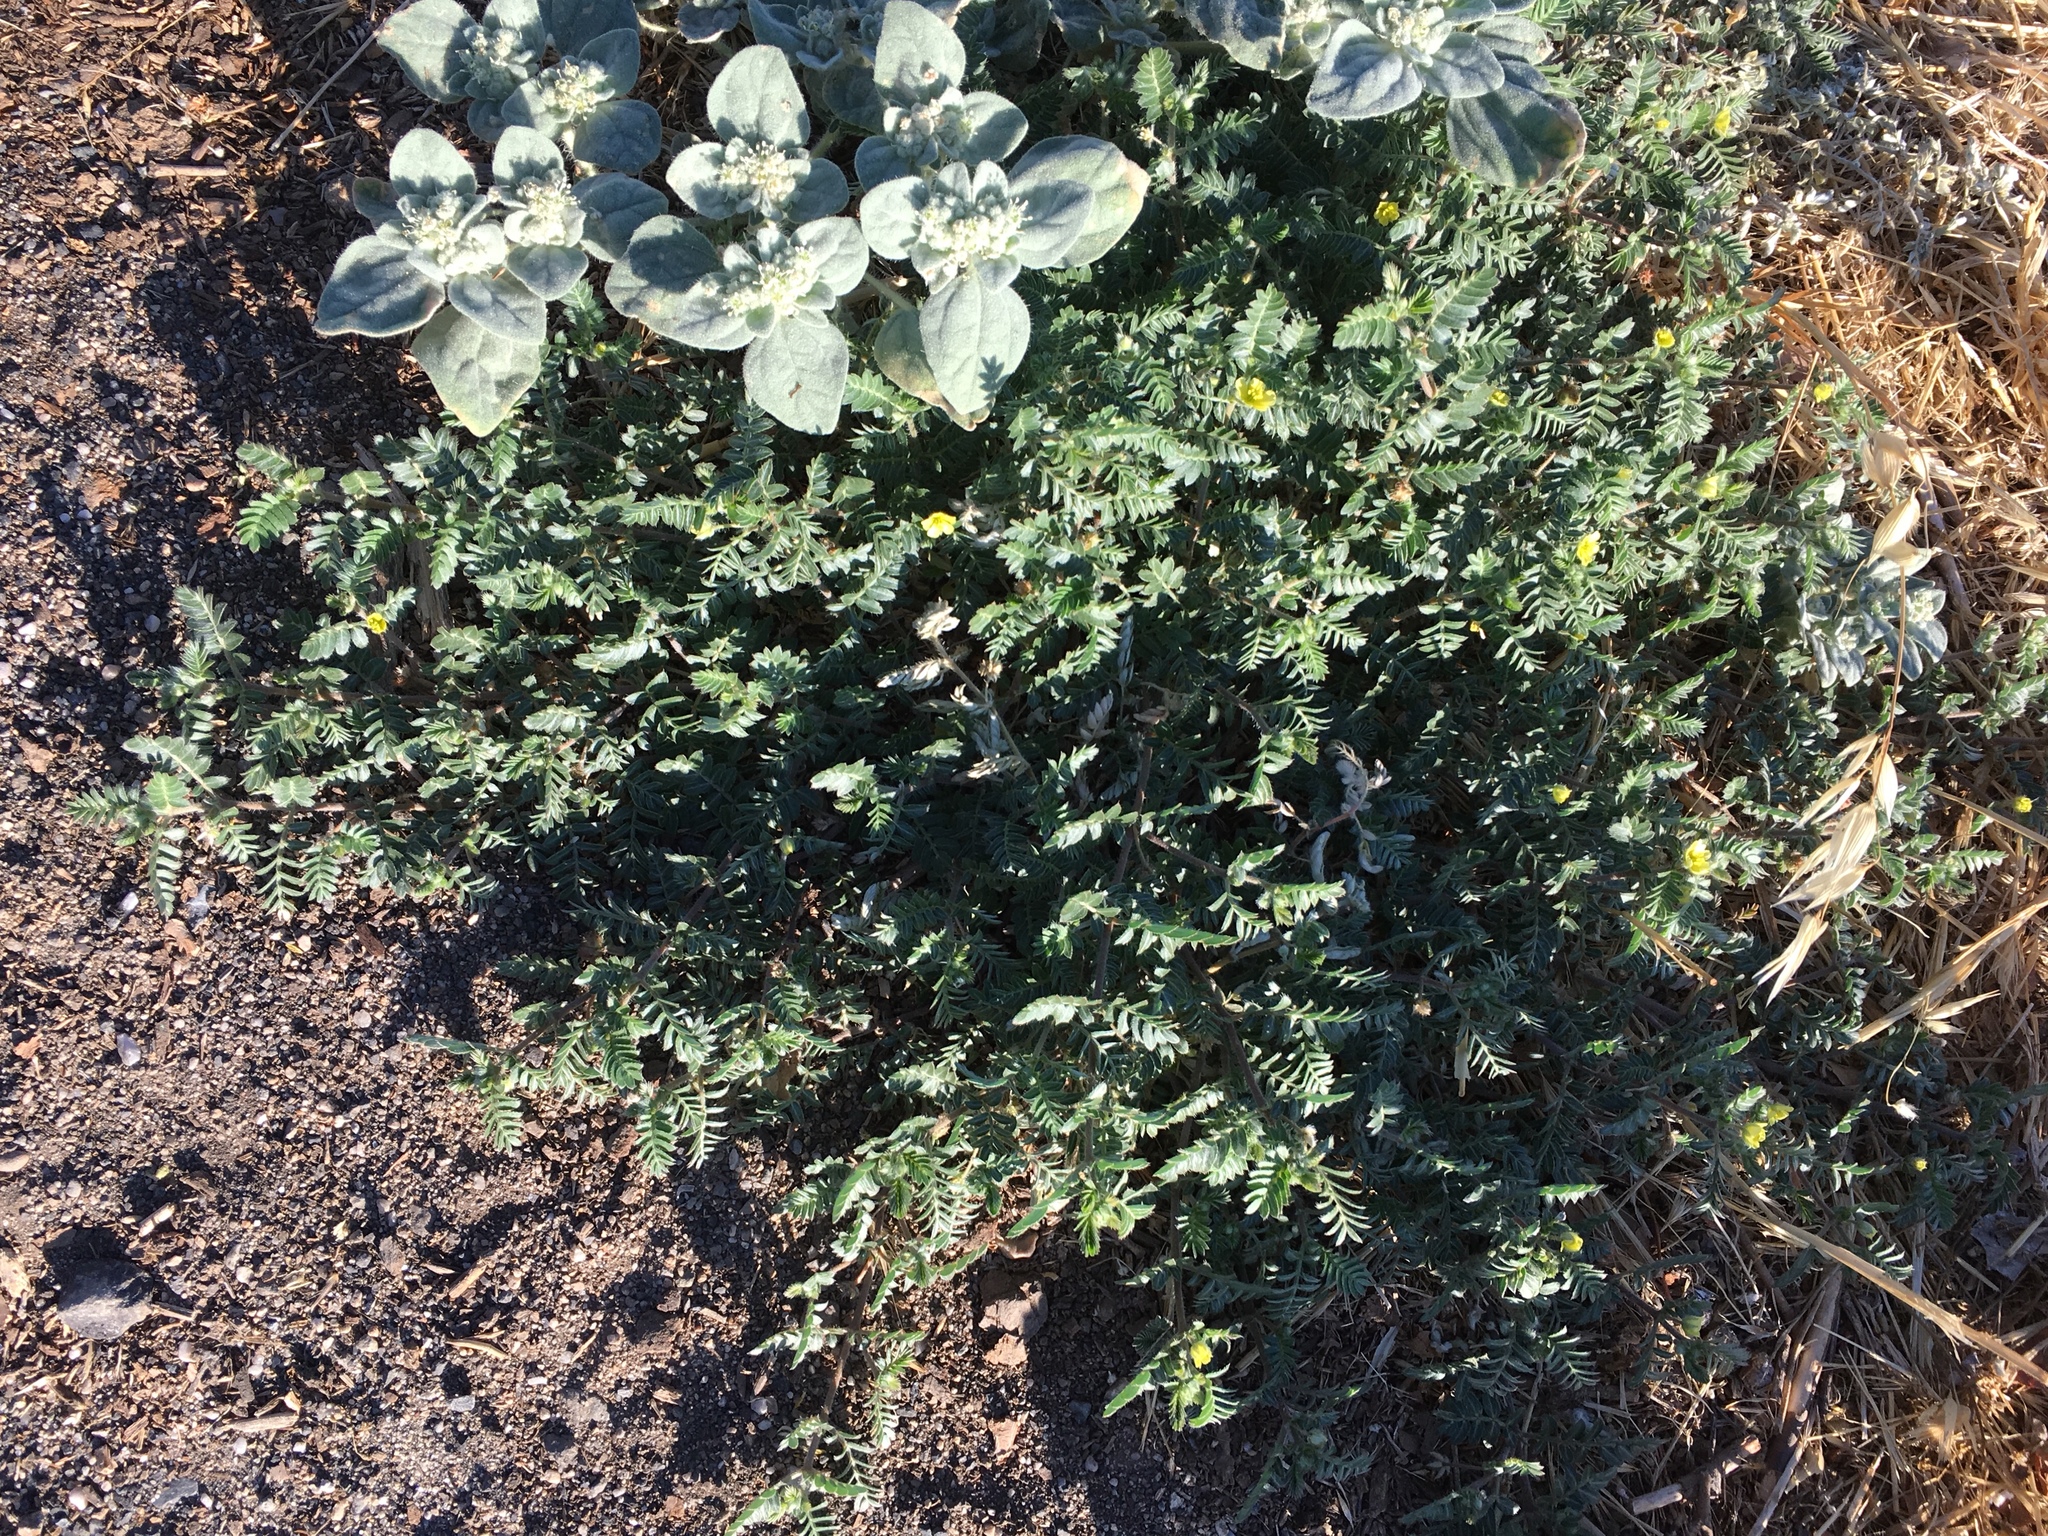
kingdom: Plantae
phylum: Tracheophyta
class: Magnoliopsida
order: Zygophyllales
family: Zygophyllaceae
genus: Tribulus
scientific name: Tribulus terrestris
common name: Puncturevine
